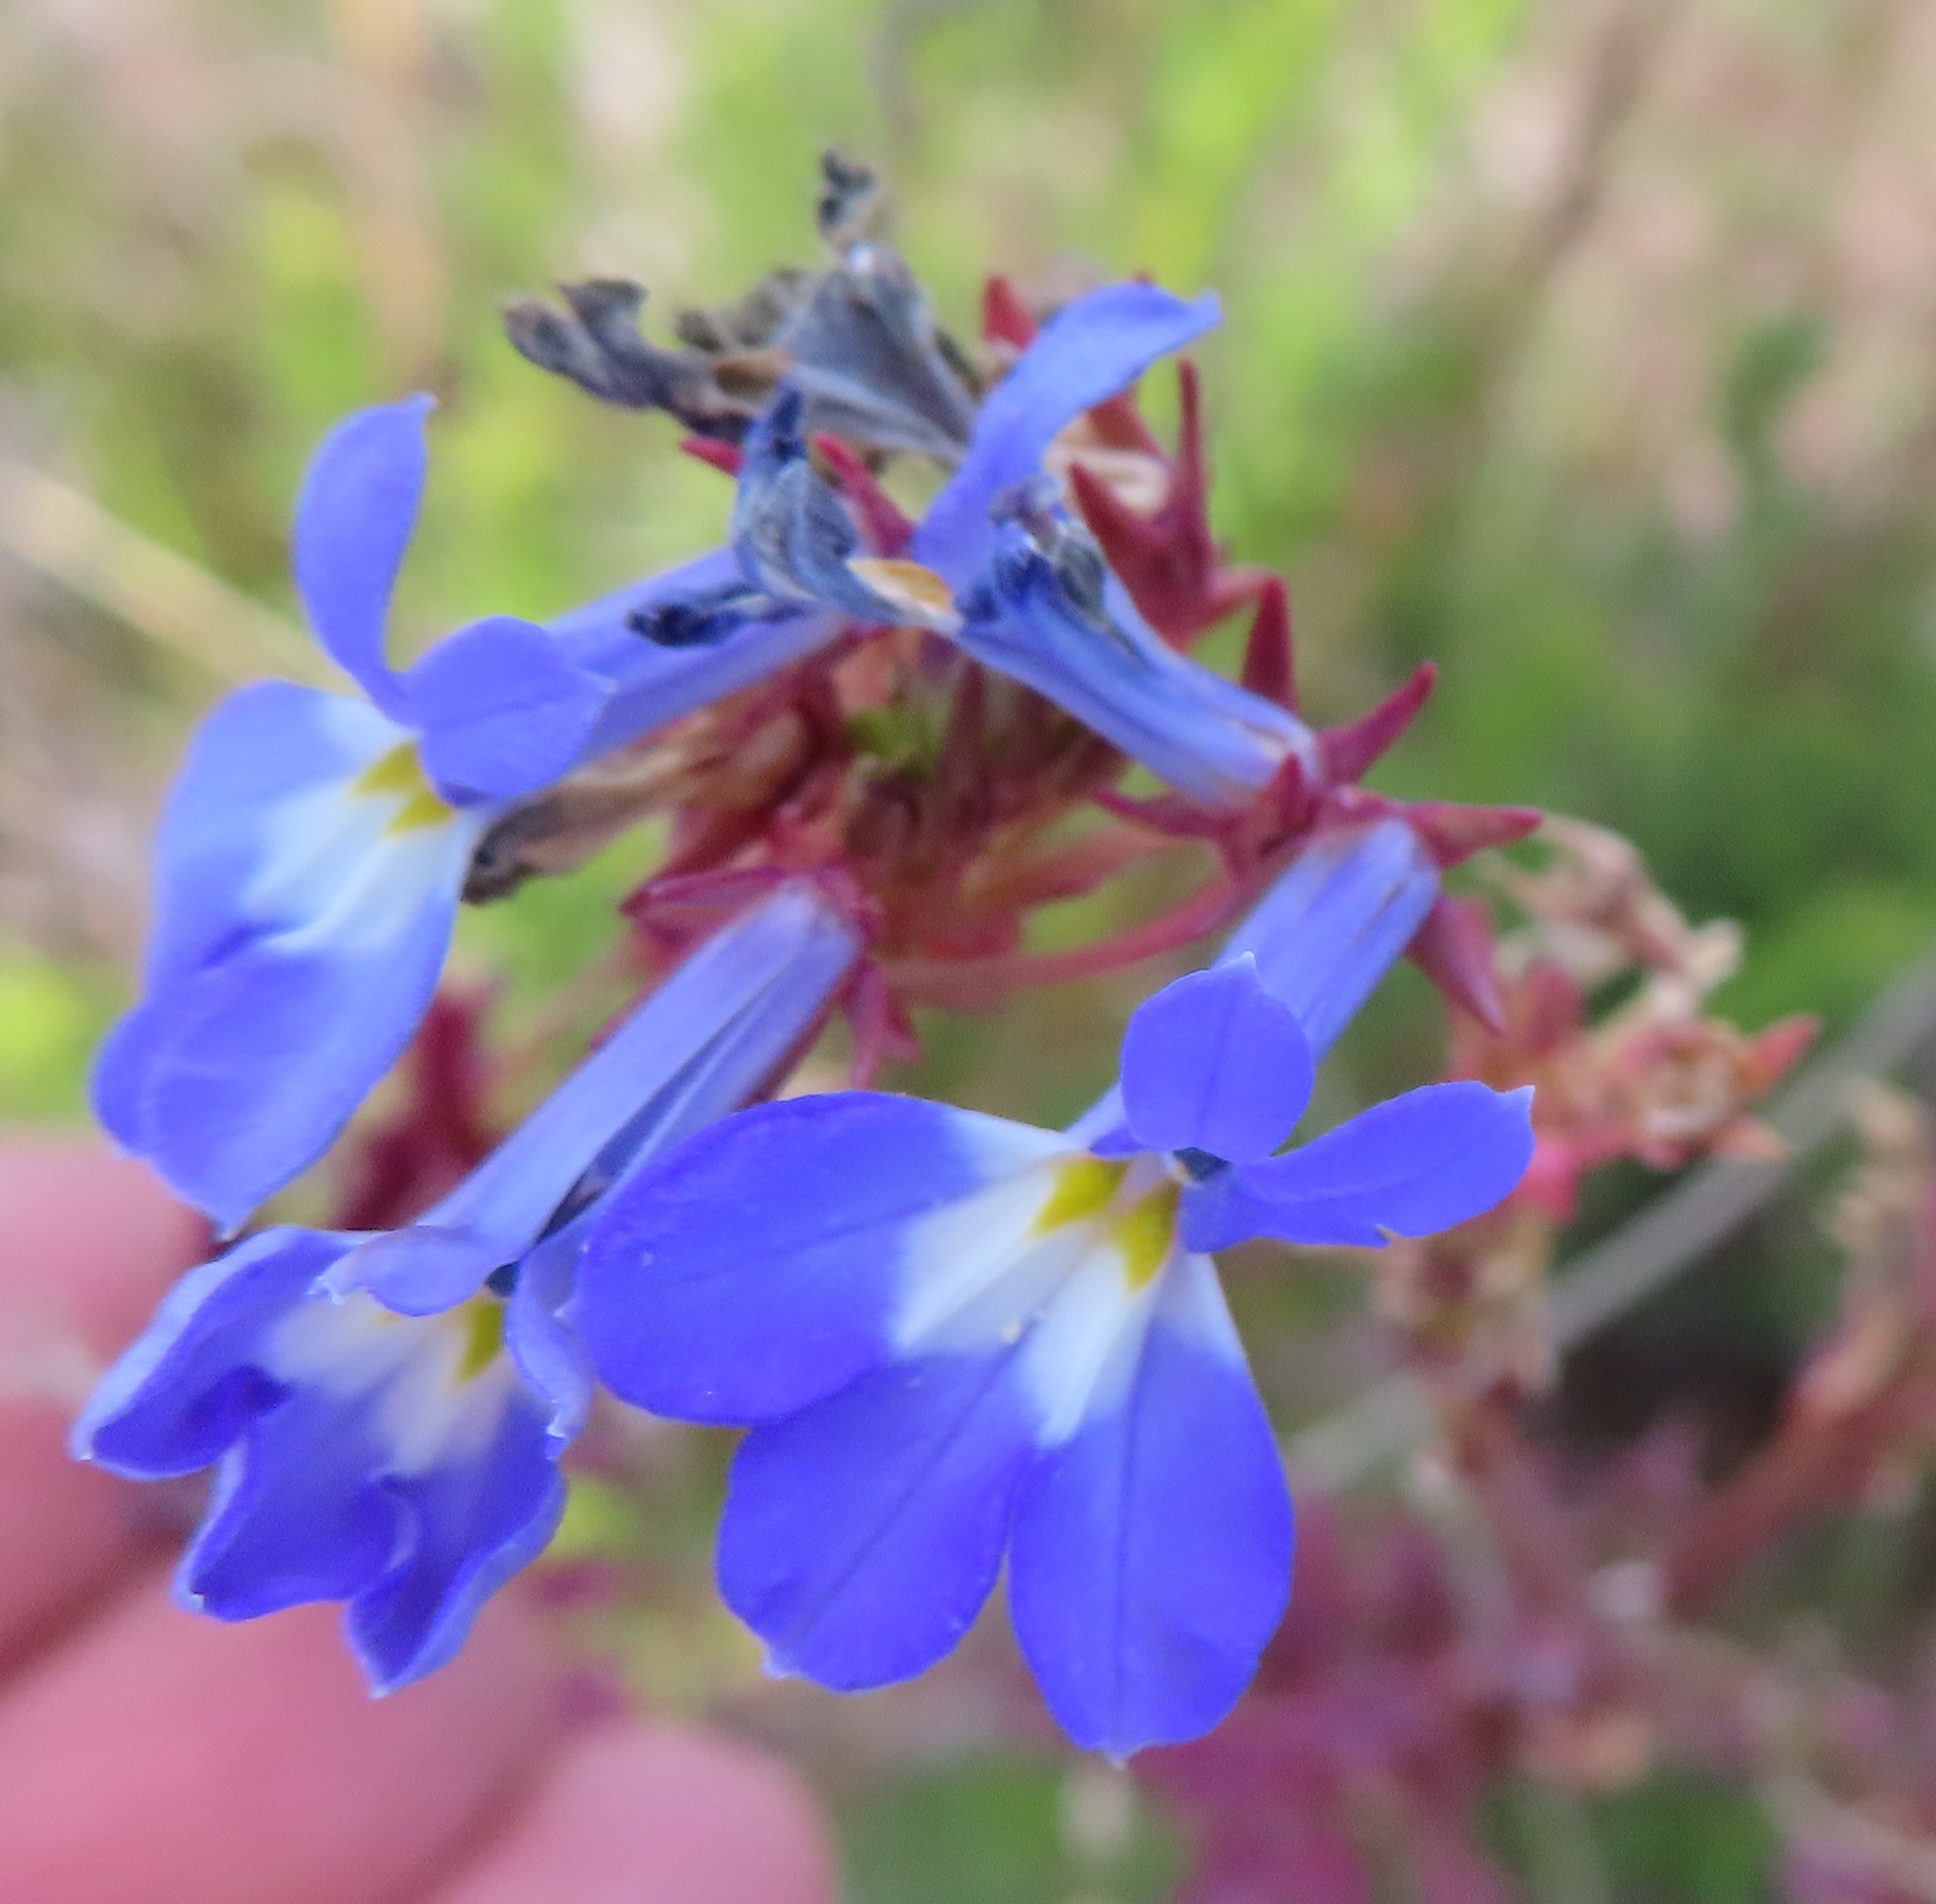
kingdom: Plantae
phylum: Tracheophyta
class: Magnoliopsida
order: Asterales
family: Campanulaceae
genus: Lobelia
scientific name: Lobelia comosa
